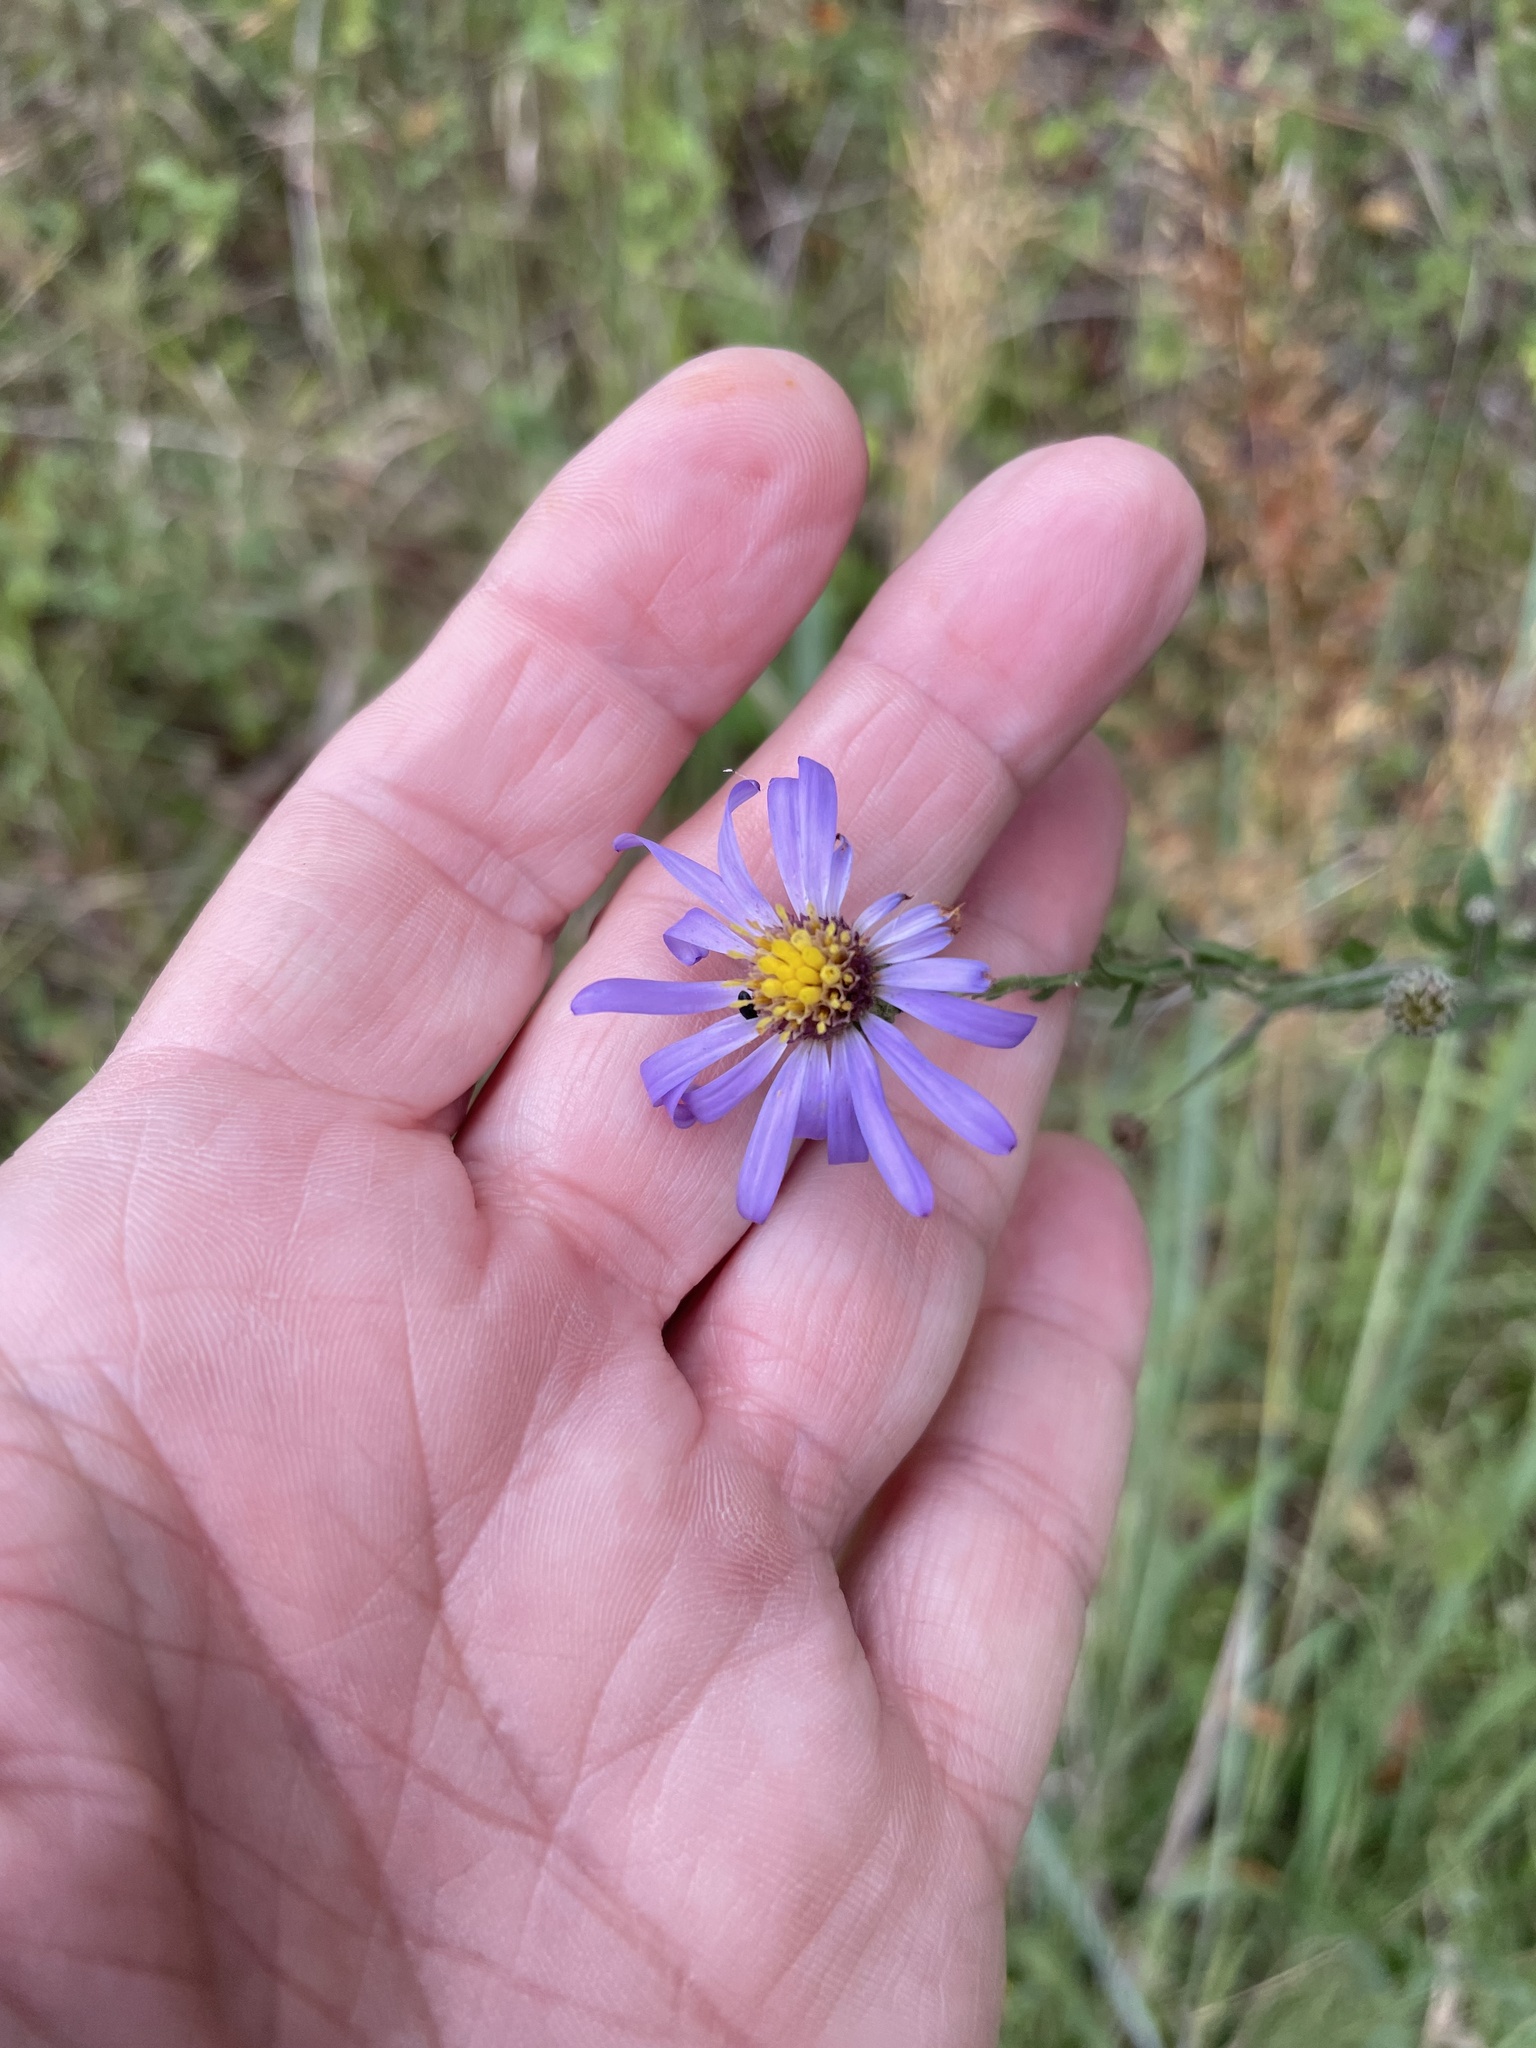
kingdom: Plantae
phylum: Tracheophyta
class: Magnoliopsida
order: Asterales
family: Asteraceae
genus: Symphyotrichum
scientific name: Symphyotrichum patens
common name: Late purple aster
